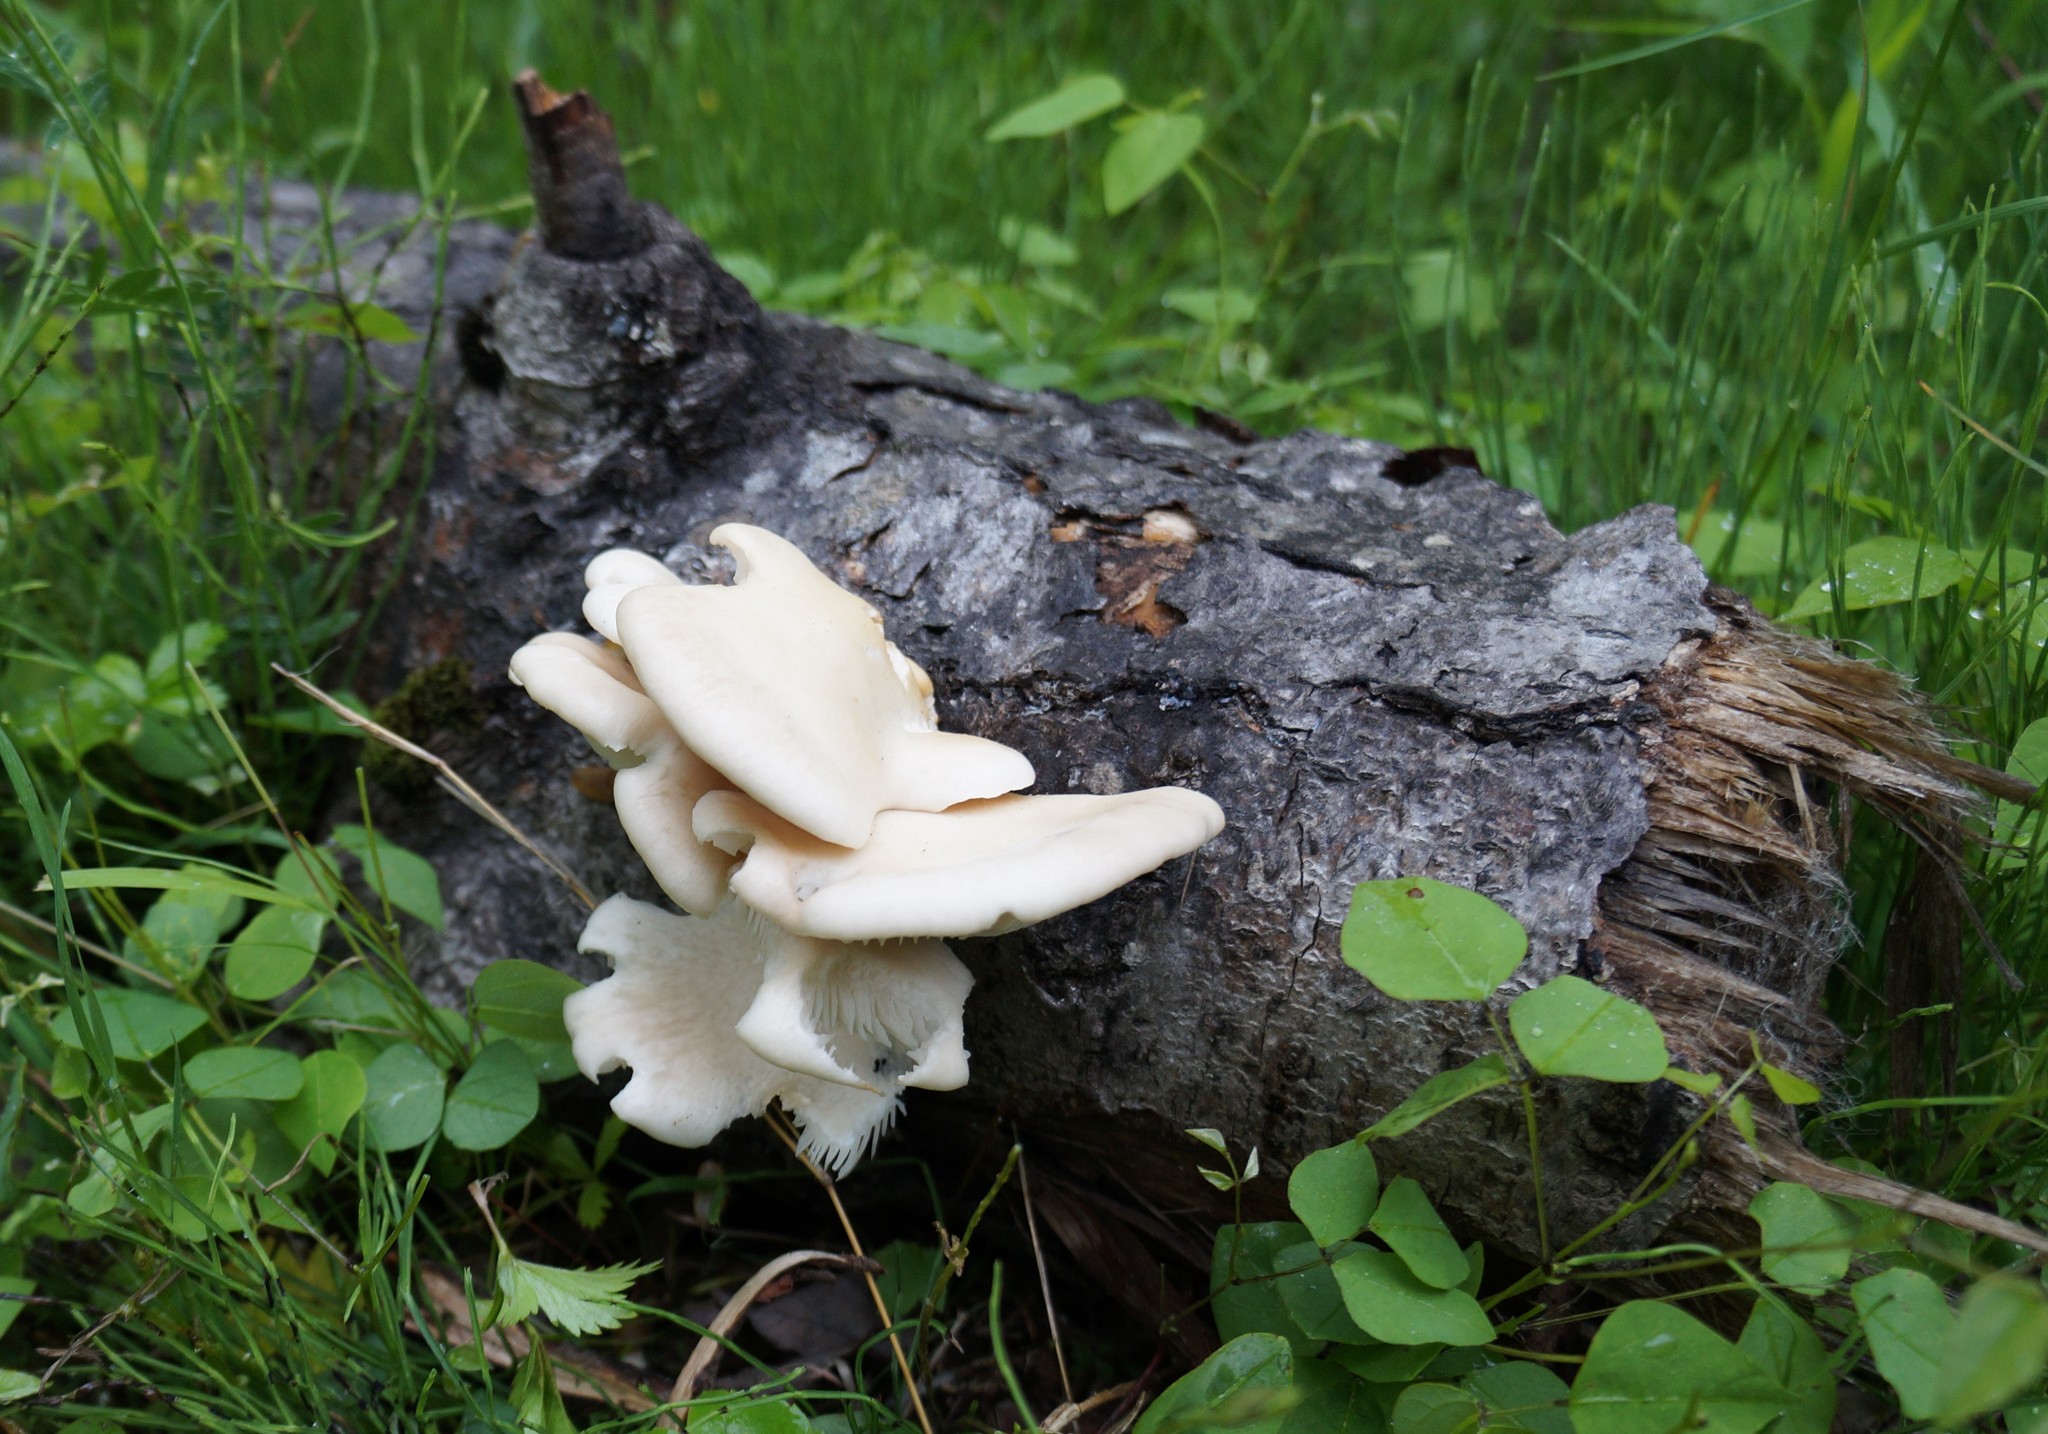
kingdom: Fungi
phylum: Basidiomycota
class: Agaricomycetes
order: Agaricales
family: Pleurotaceae
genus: Pleurotus
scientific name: Pleurotus populinus
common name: Aspen oyster mushroom
